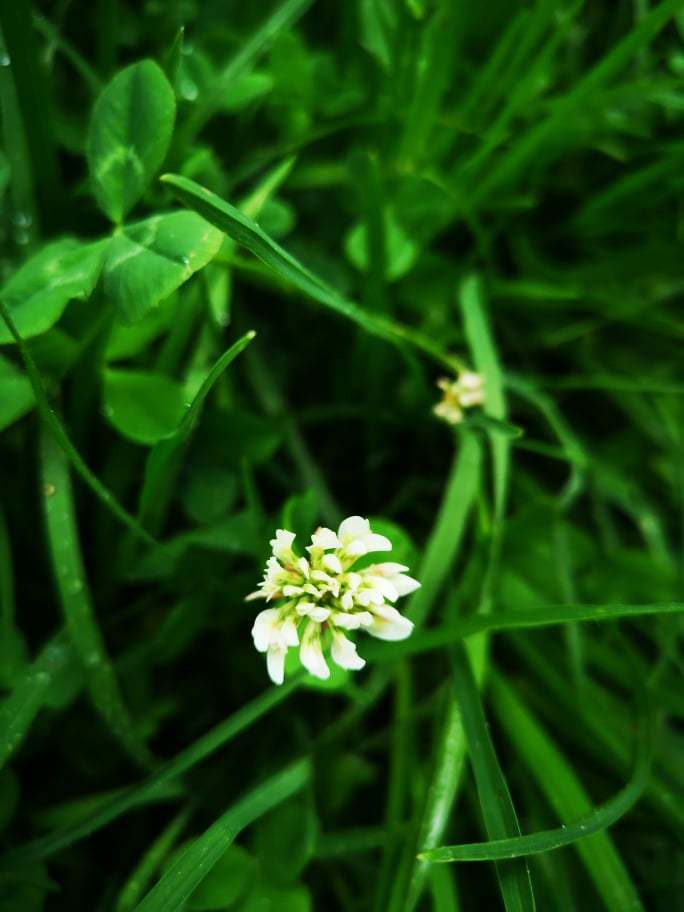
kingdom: Plantae
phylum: Tracheophyta
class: Magnoliopsida
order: Fabales
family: Fabaceae
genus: Trifolium
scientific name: Trifolium repens
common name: White clover
